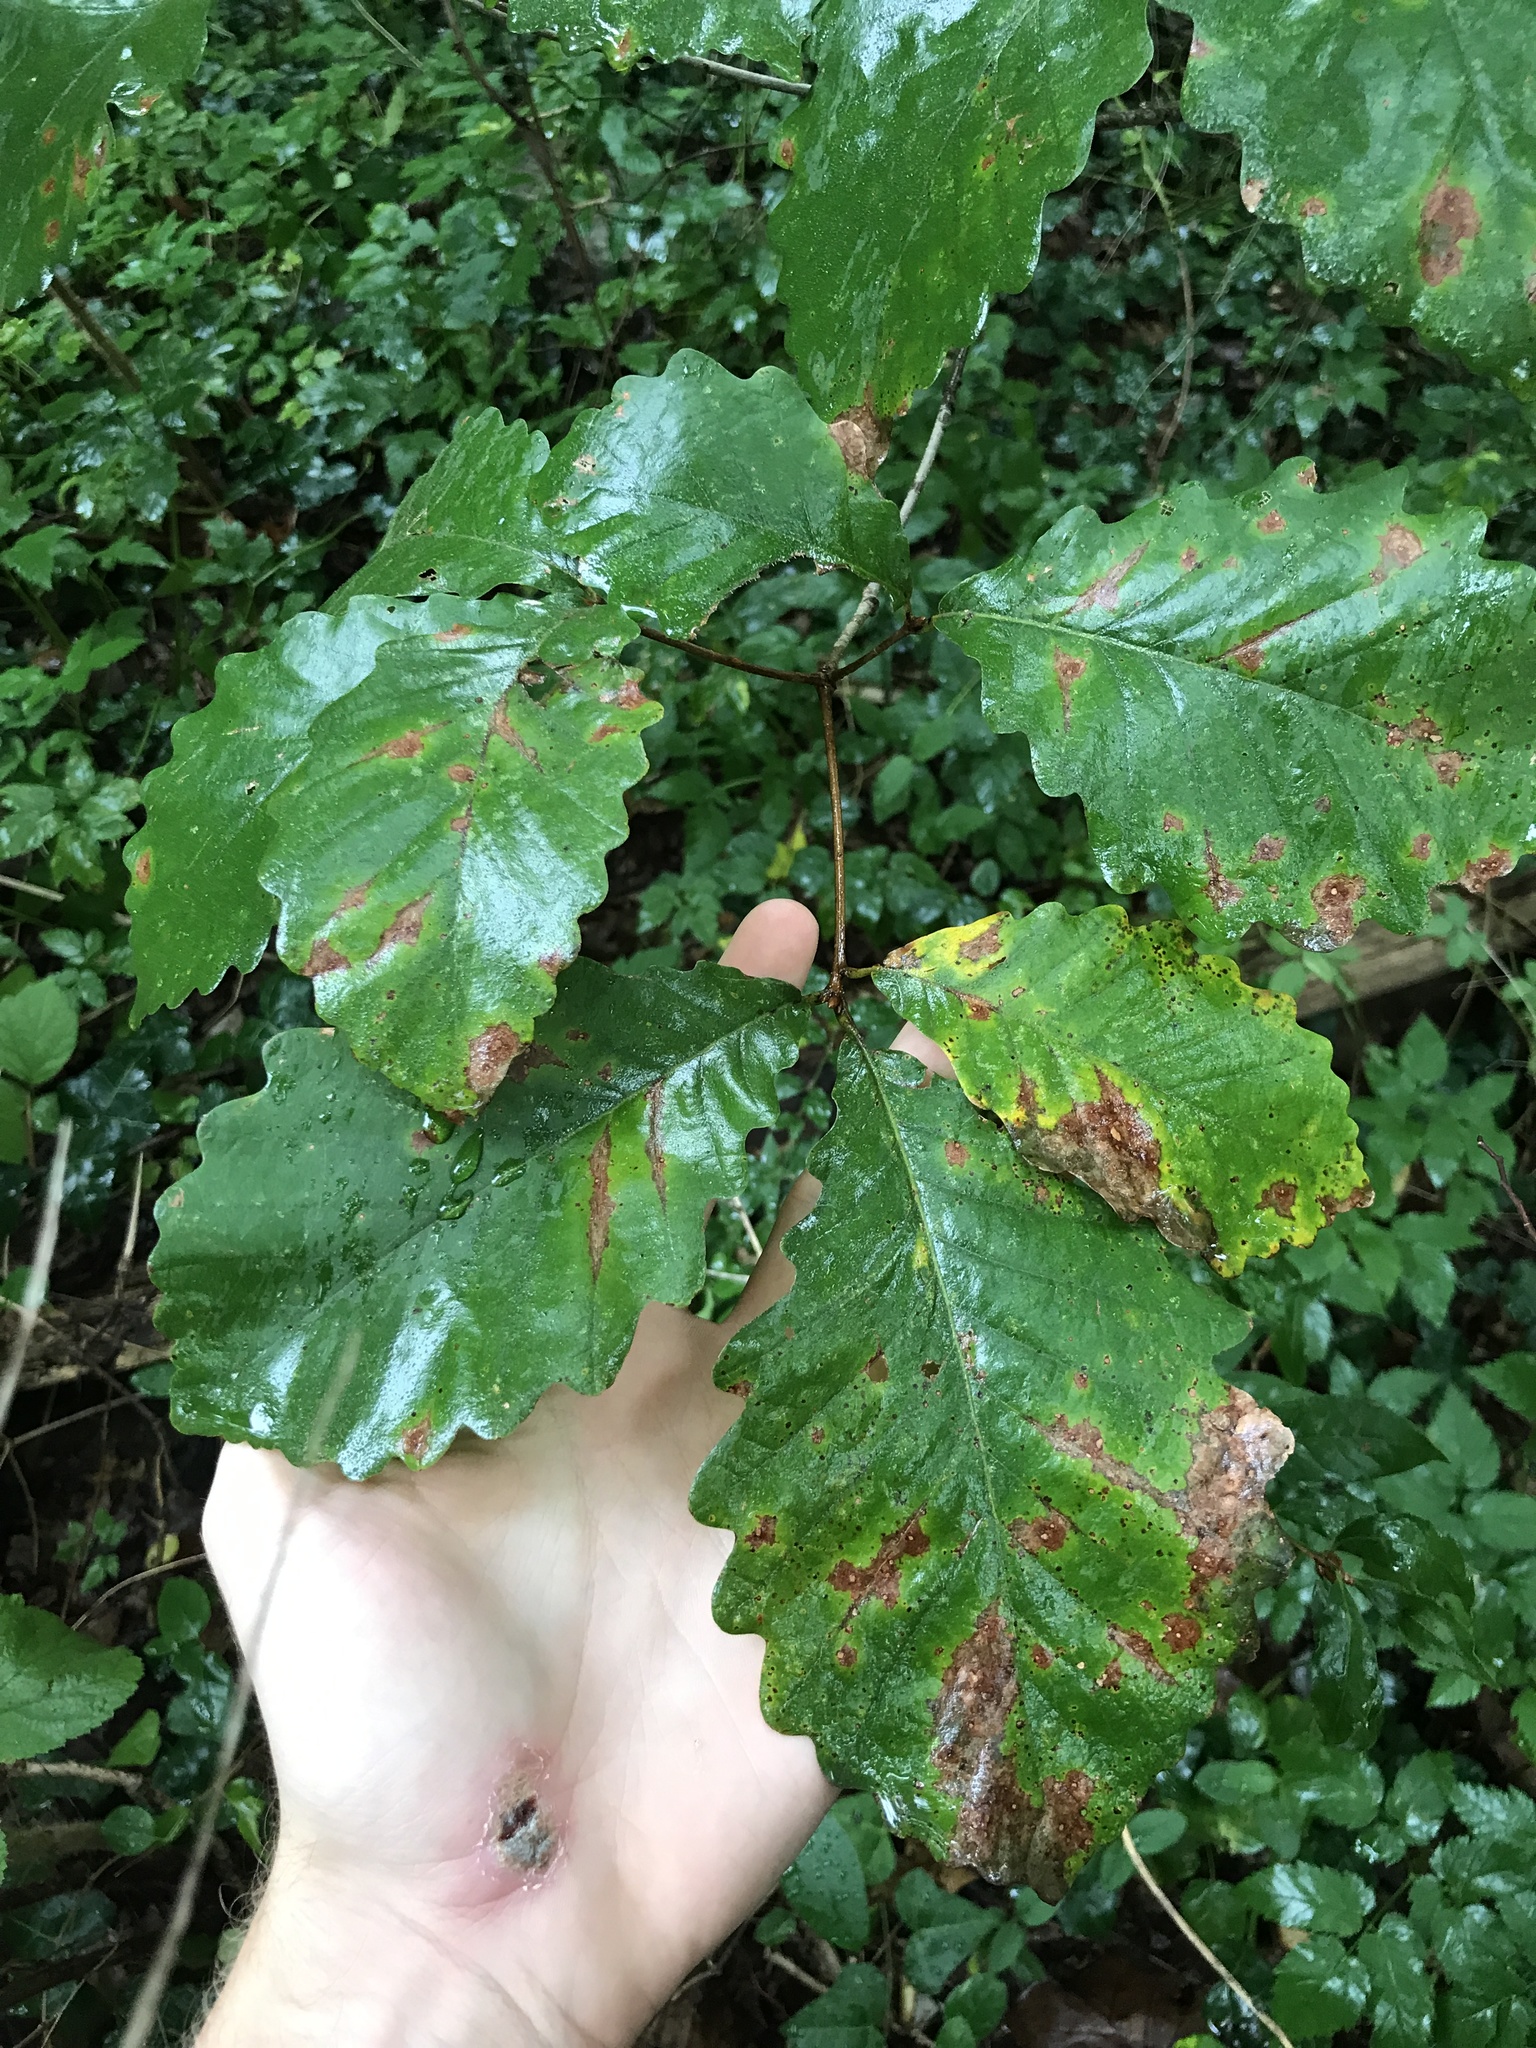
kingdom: Plantae
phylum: Tracheophyta
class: Magnoliopsida
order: Fagales
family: Fagaceae
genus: Quercus
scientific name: Quercus montana
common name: Chestnut oak
